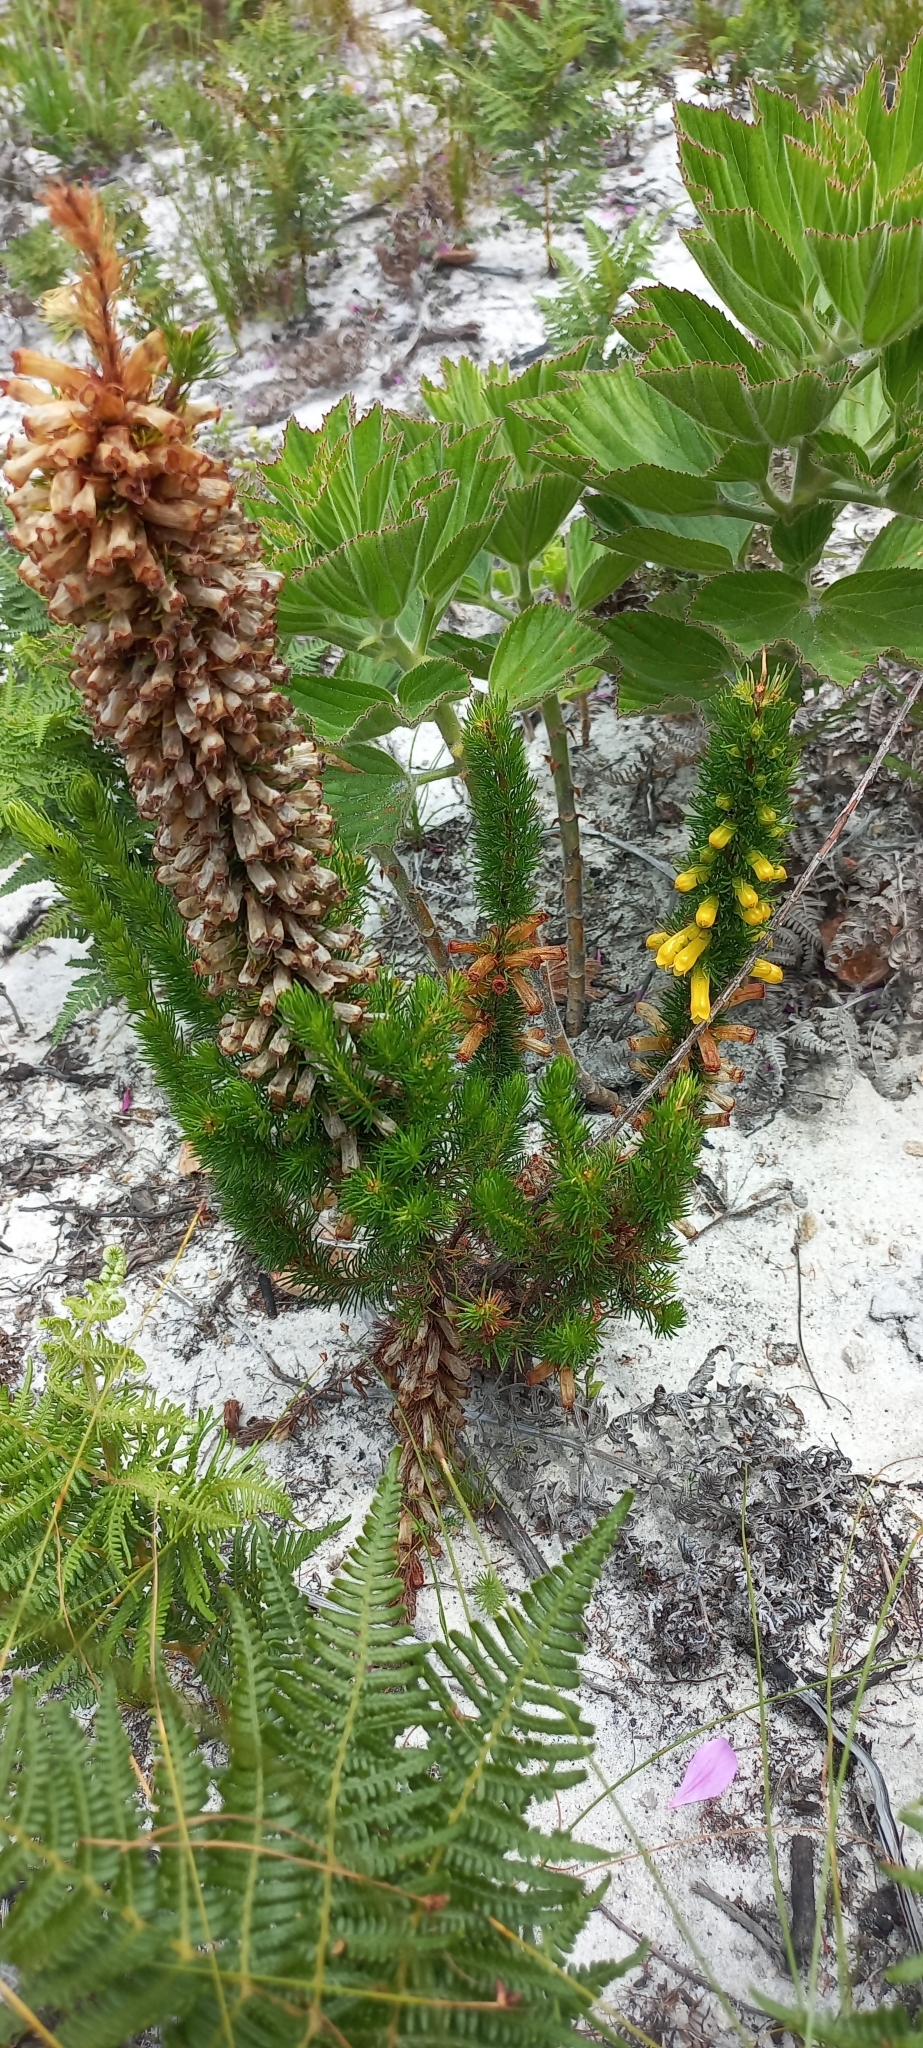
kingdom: Plantae
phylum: Tracheophyta
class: Magnoliopsida
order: Ericales
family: Ericaceae
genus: Erica
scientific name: Erica patersonia
